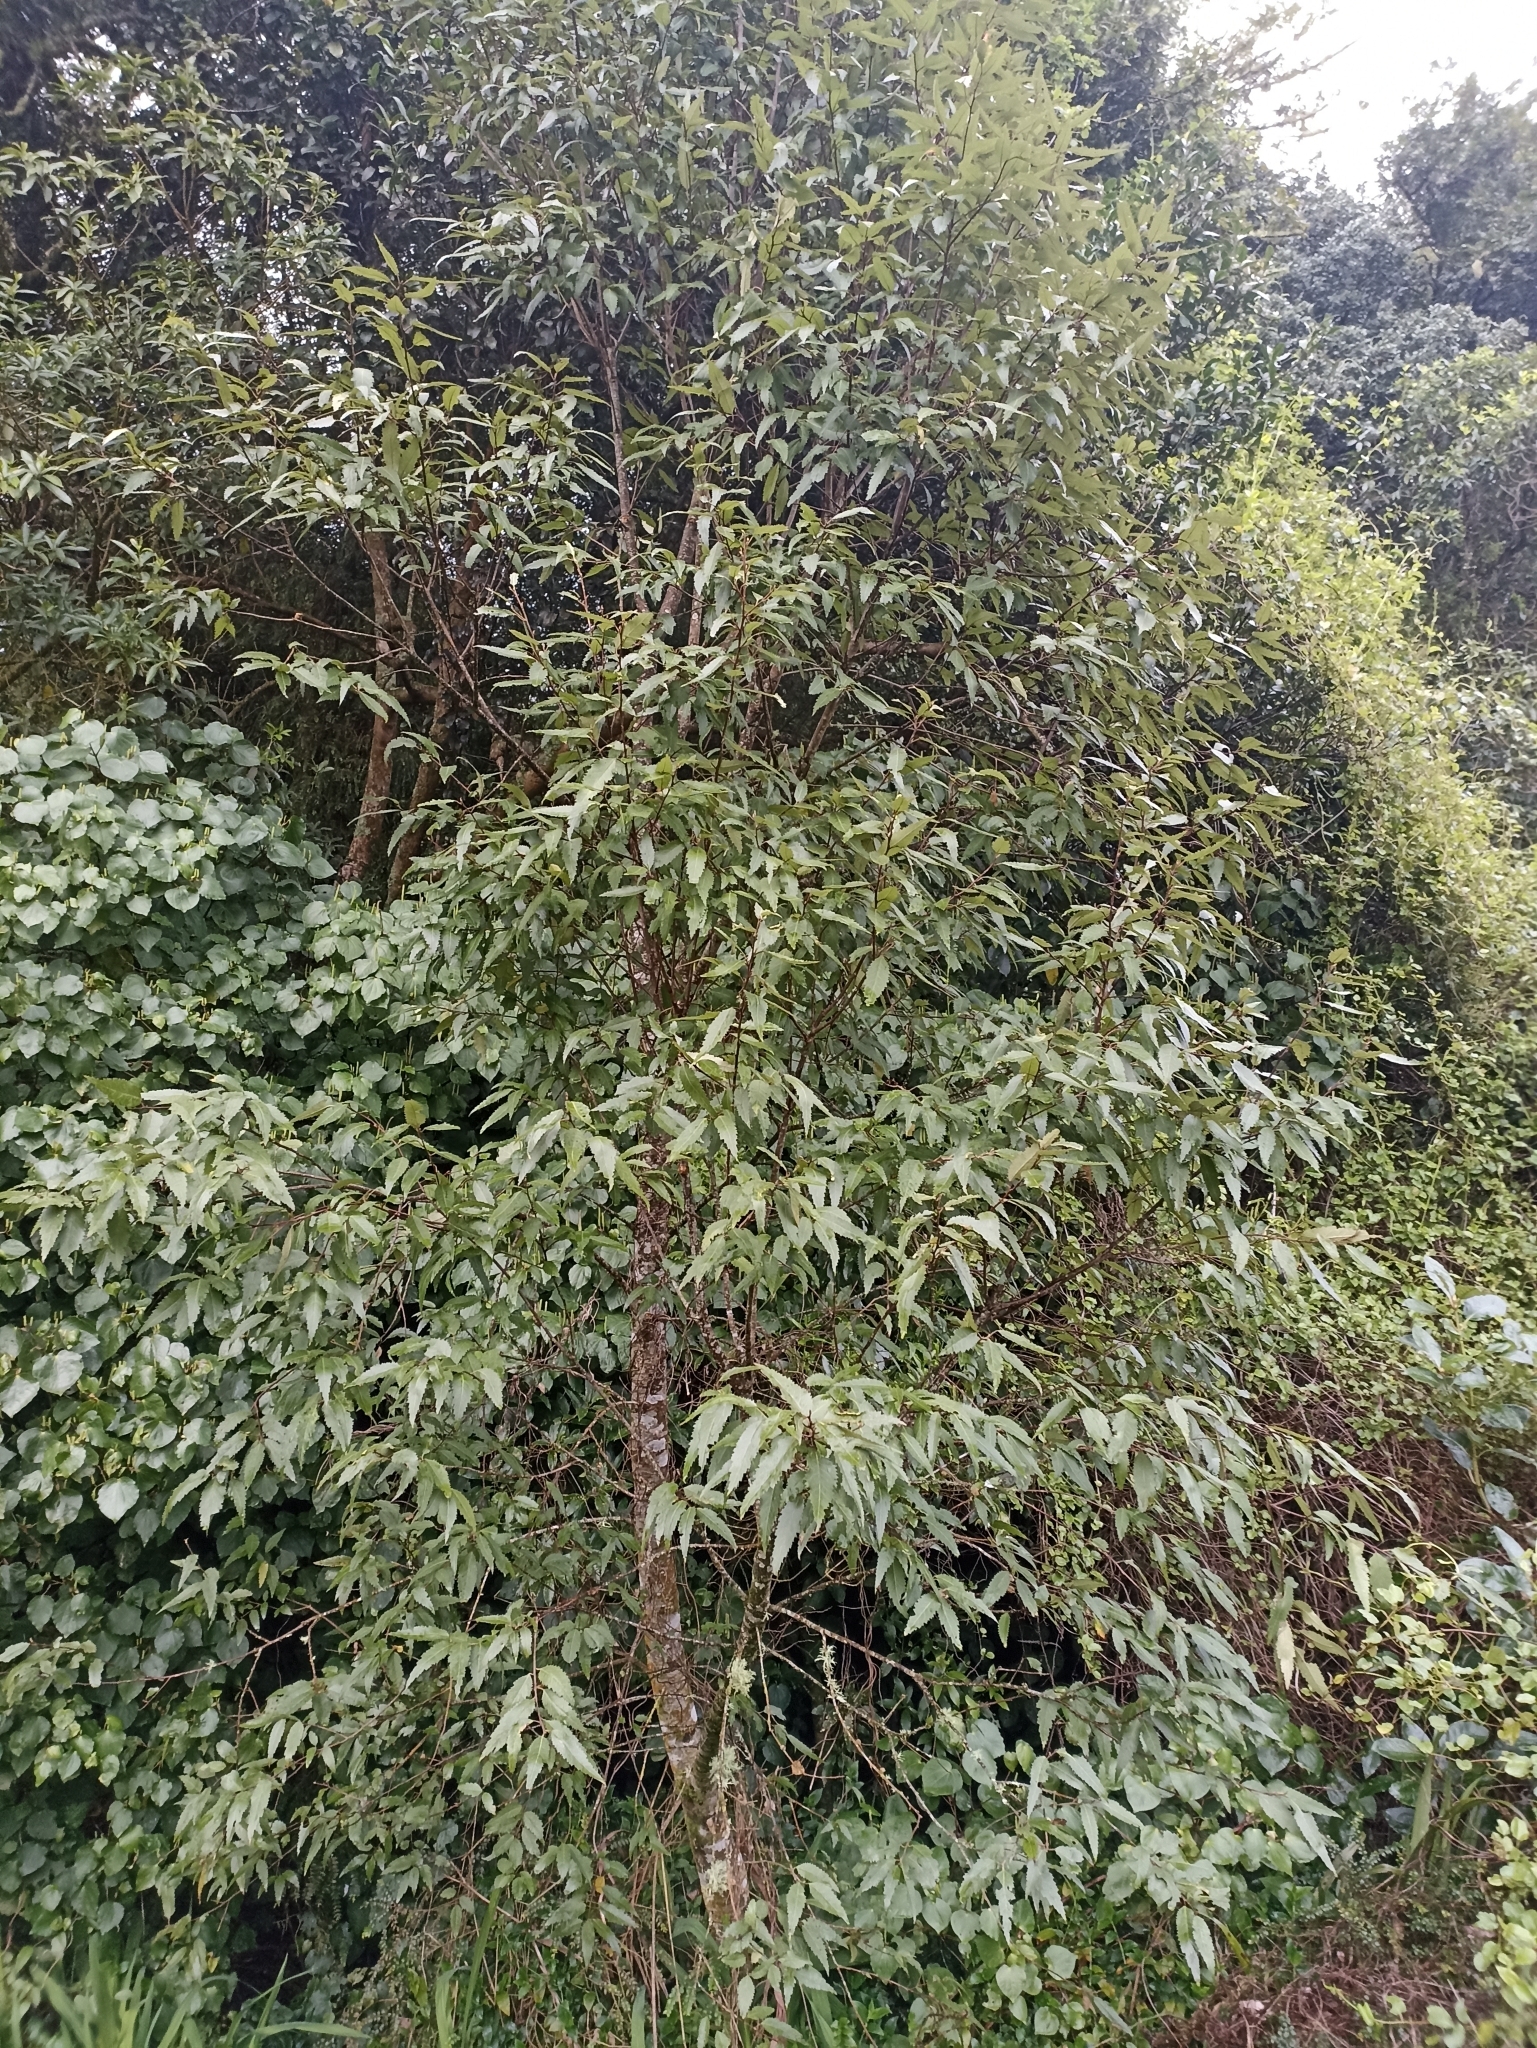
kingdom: Plantae
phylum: Tracheophyta
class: Magnoliopsida
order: Malvales
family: Malvaceae
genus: Hoheria
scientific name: Hoheria sexstylosa
